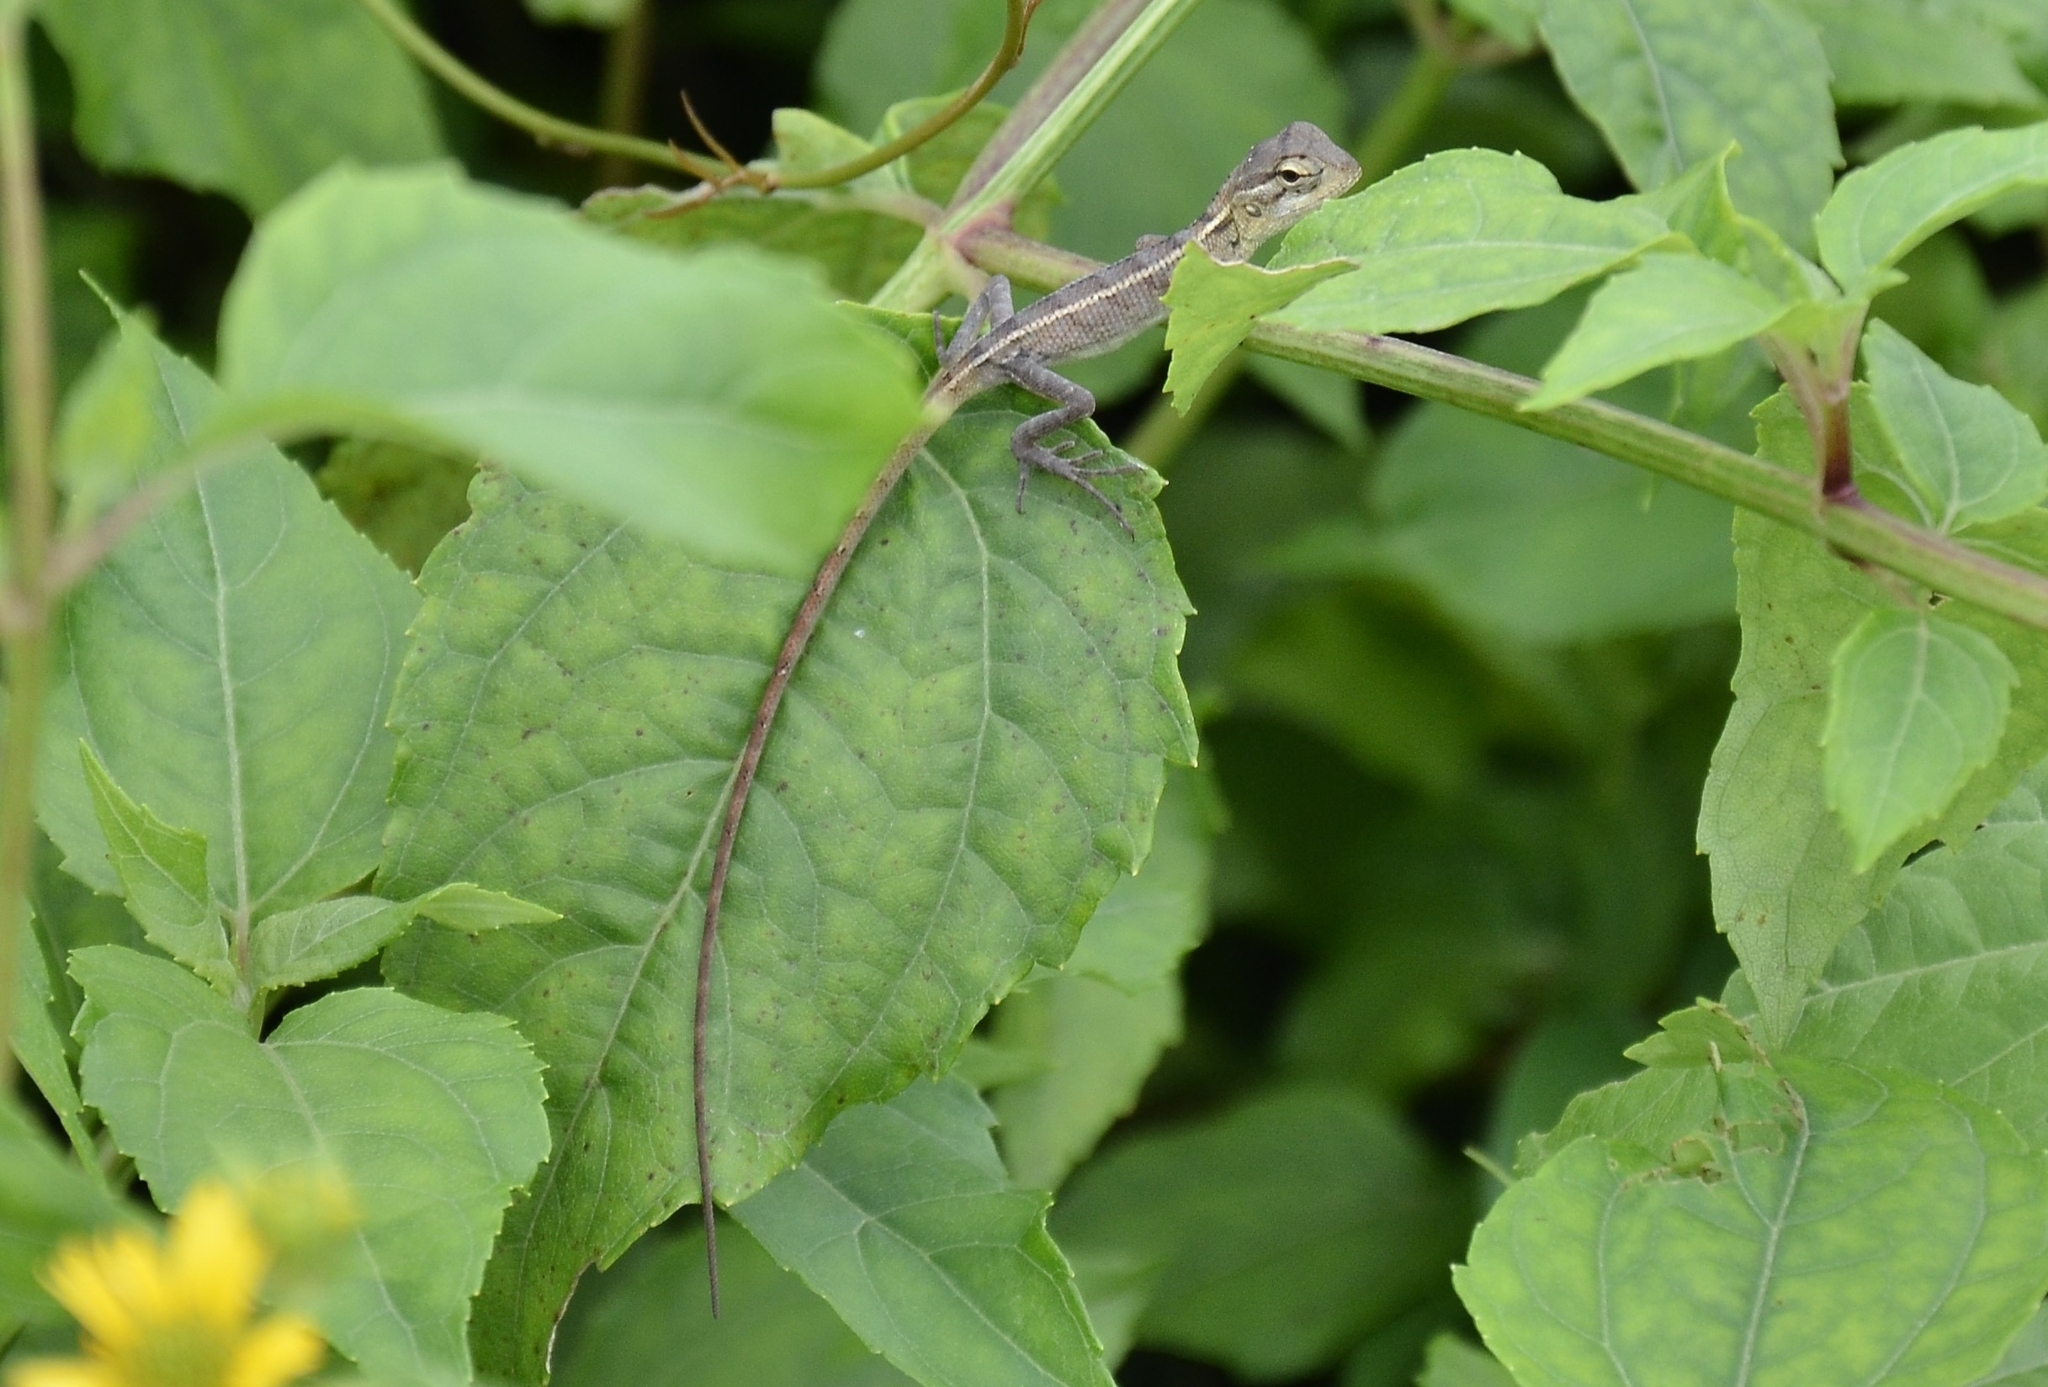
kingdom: Animalia
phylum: Chordata
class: Squamata
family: Agamidae
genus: Calotes
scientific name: Calotes versicolor
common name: Oriental garden lizard
